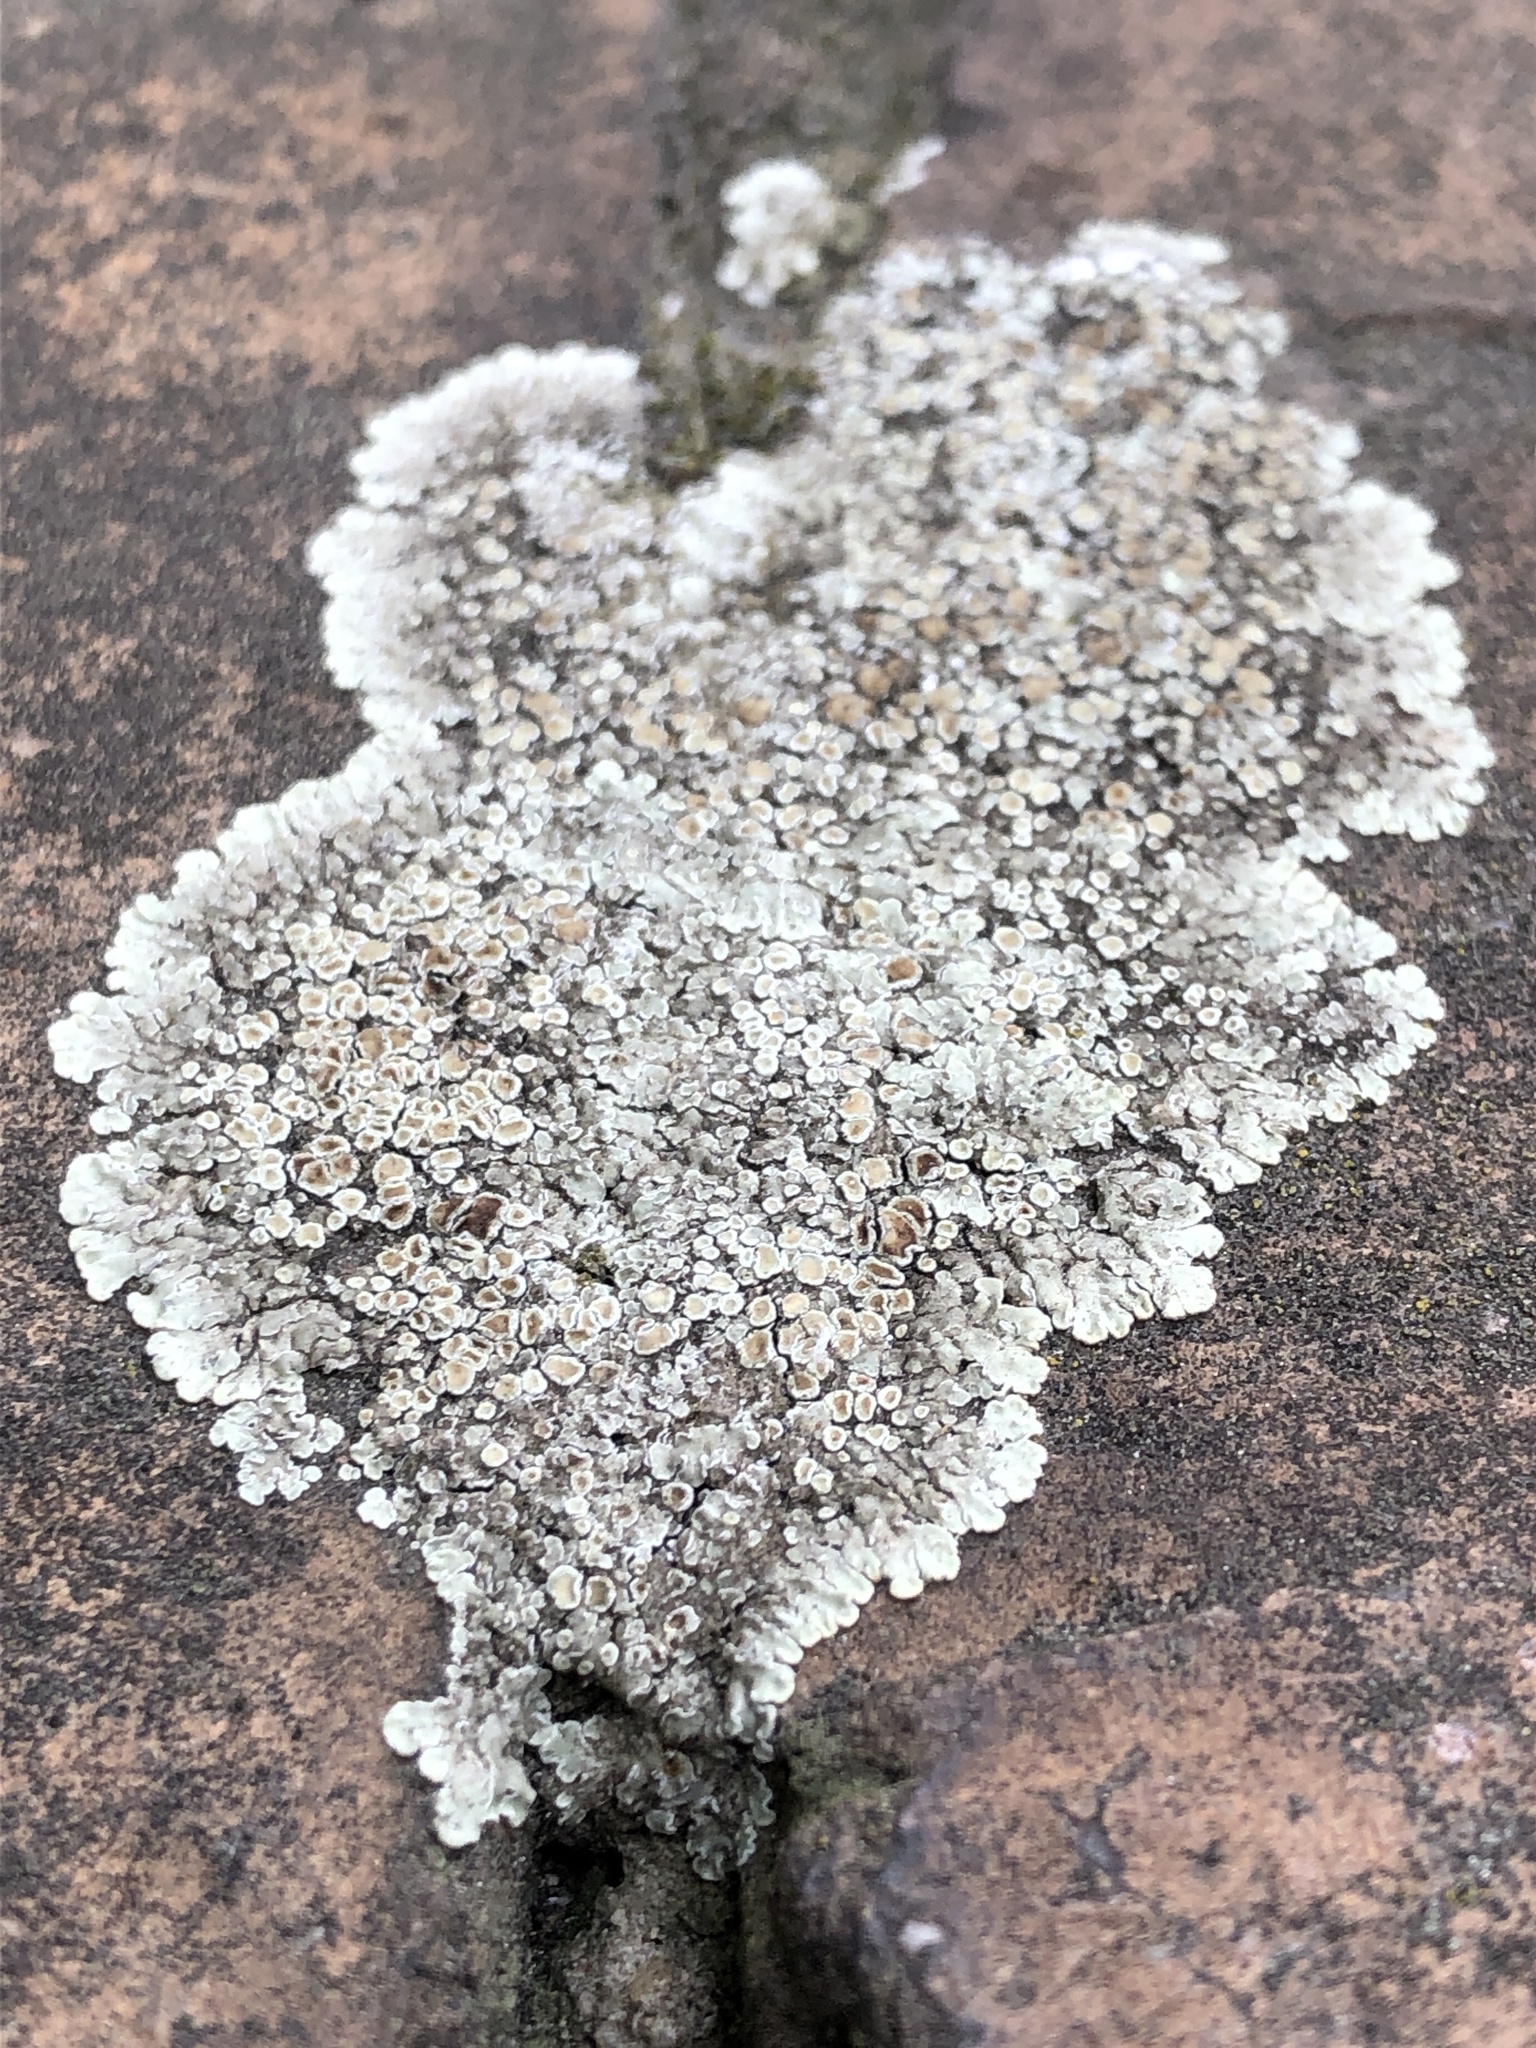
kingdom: Fungi
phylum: Ascomycota
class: Lecanoromycetes
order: Lecanorales
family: Lecanoraceae
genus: Protoparmeliopsis
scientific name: Protoparmeliopsis muralis
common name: Stonewall rim lichen
